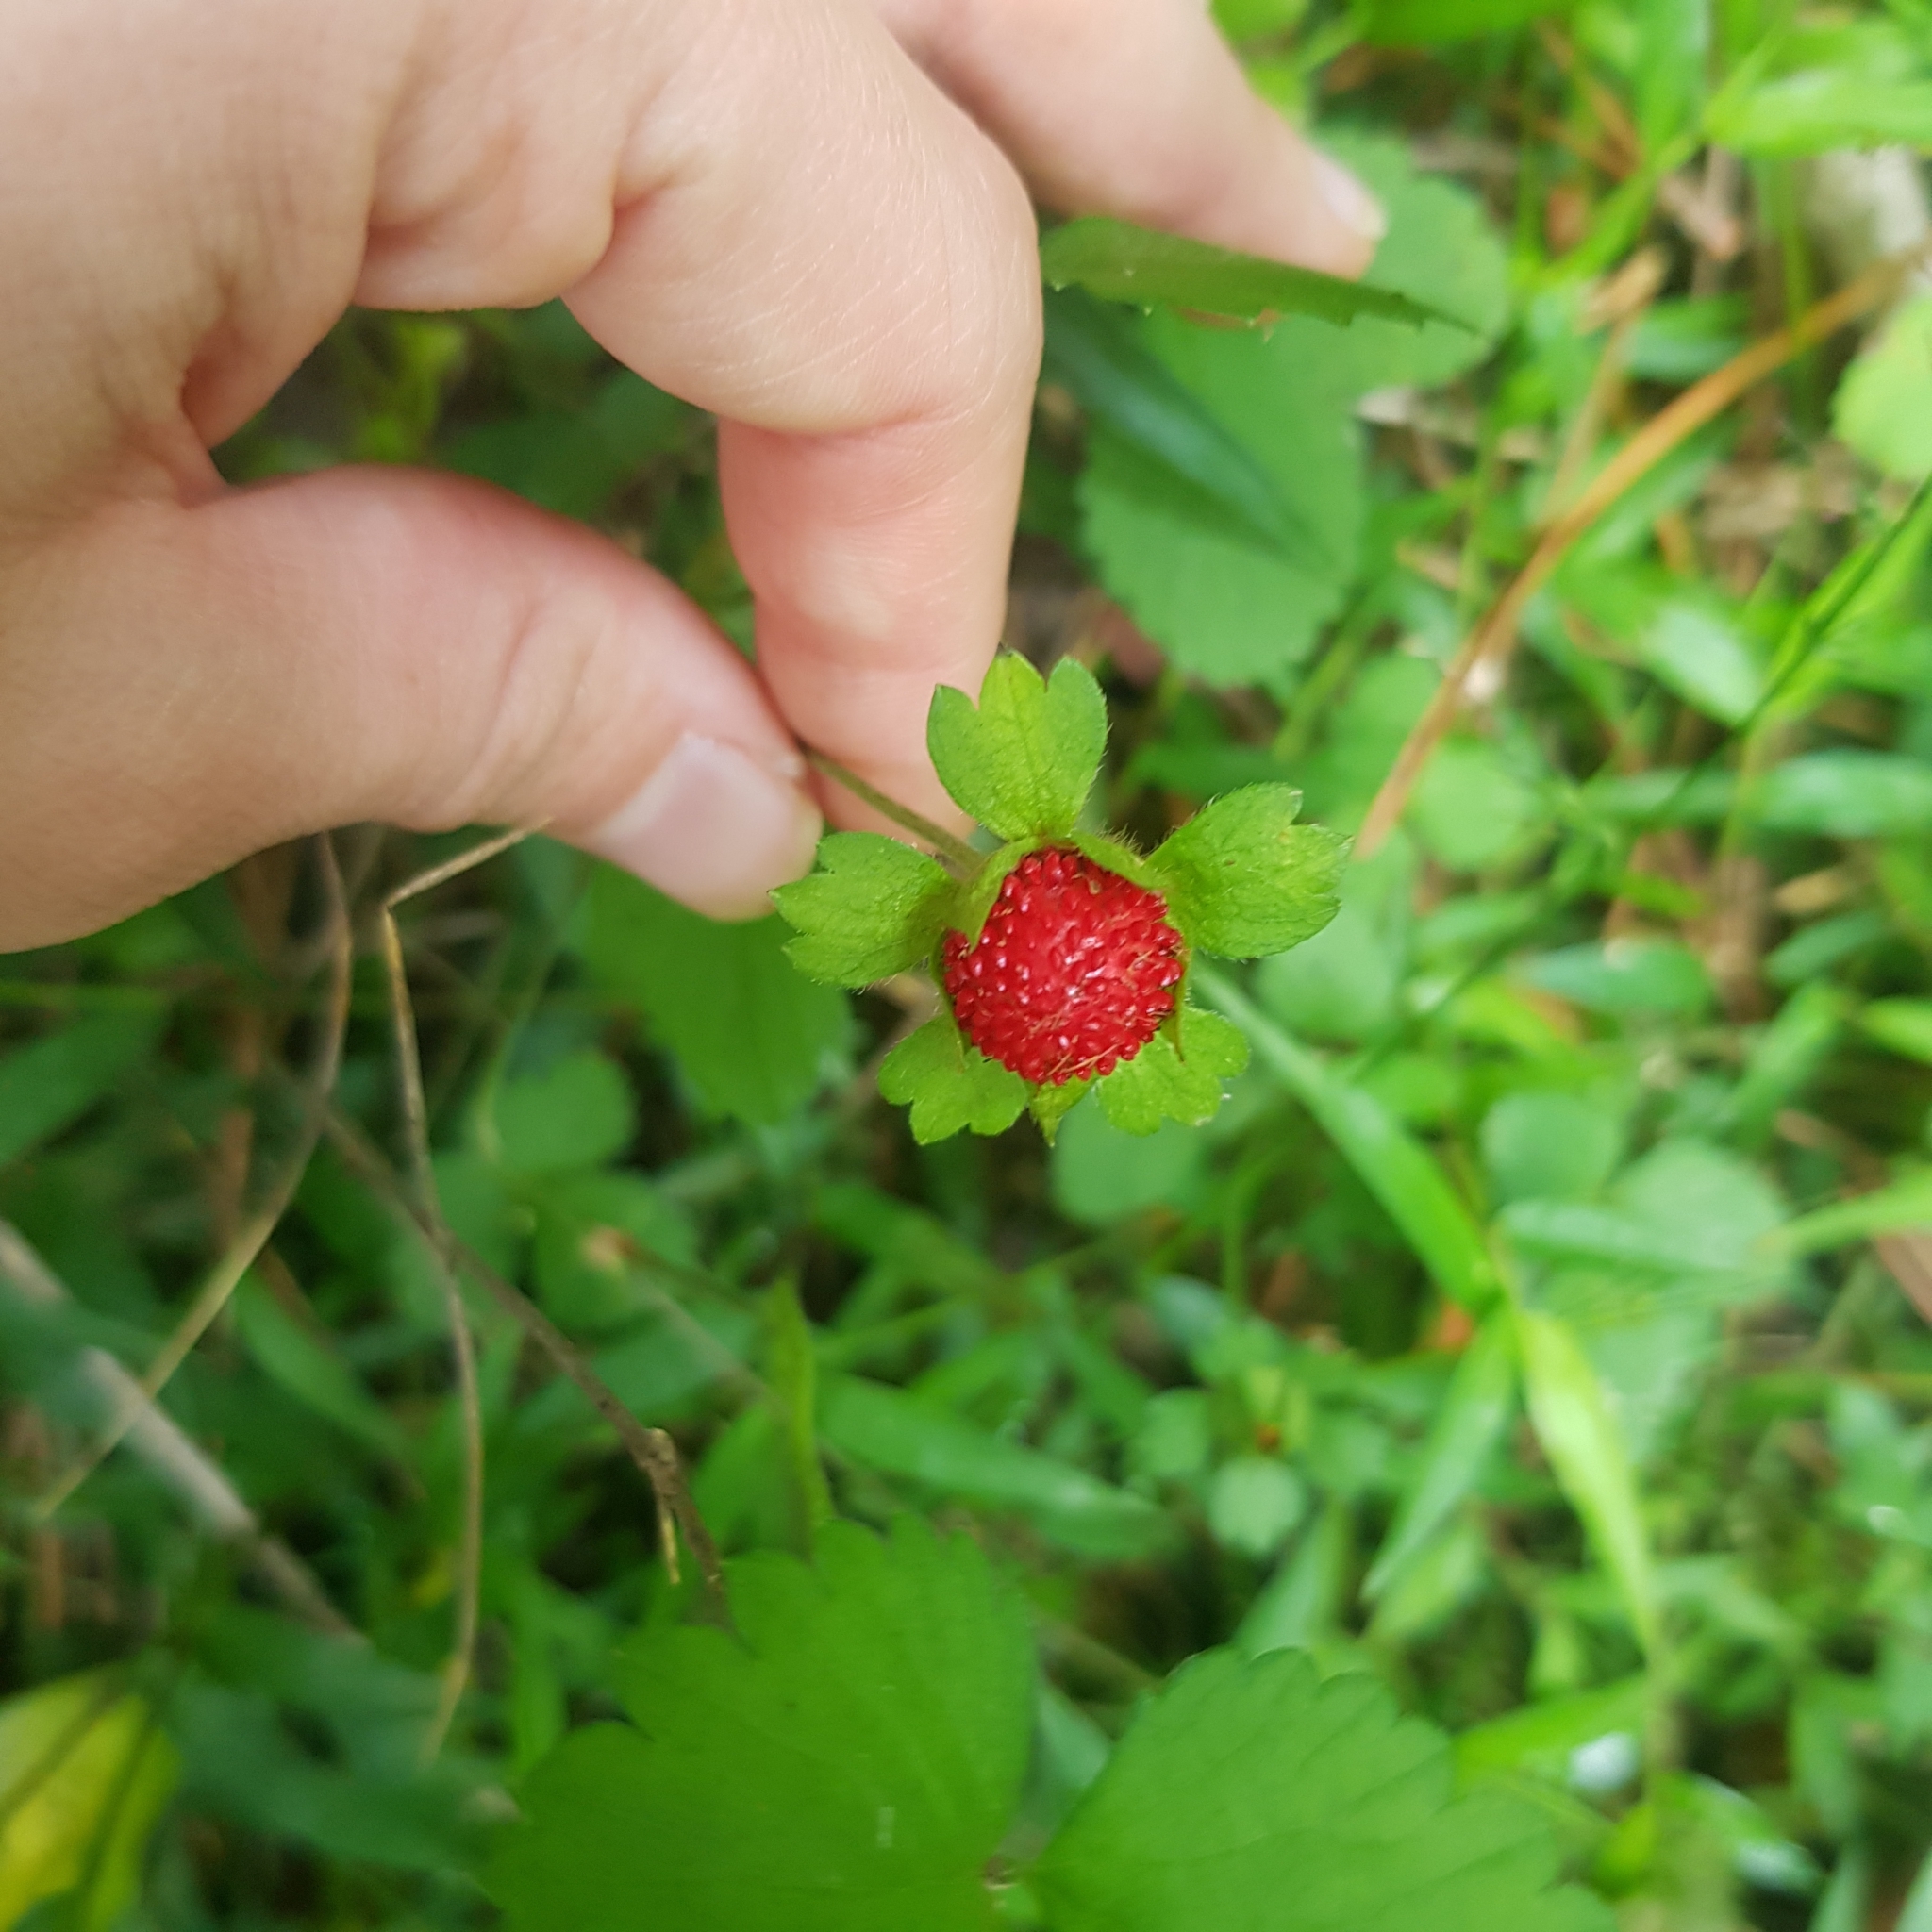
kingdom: Plantae
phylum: Tracheophyta
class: Magnoliopsida
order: Rosales
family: Rosaceae
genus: Potentilla
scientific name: Potentilla indica
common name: Yellow-flowered strawberry
